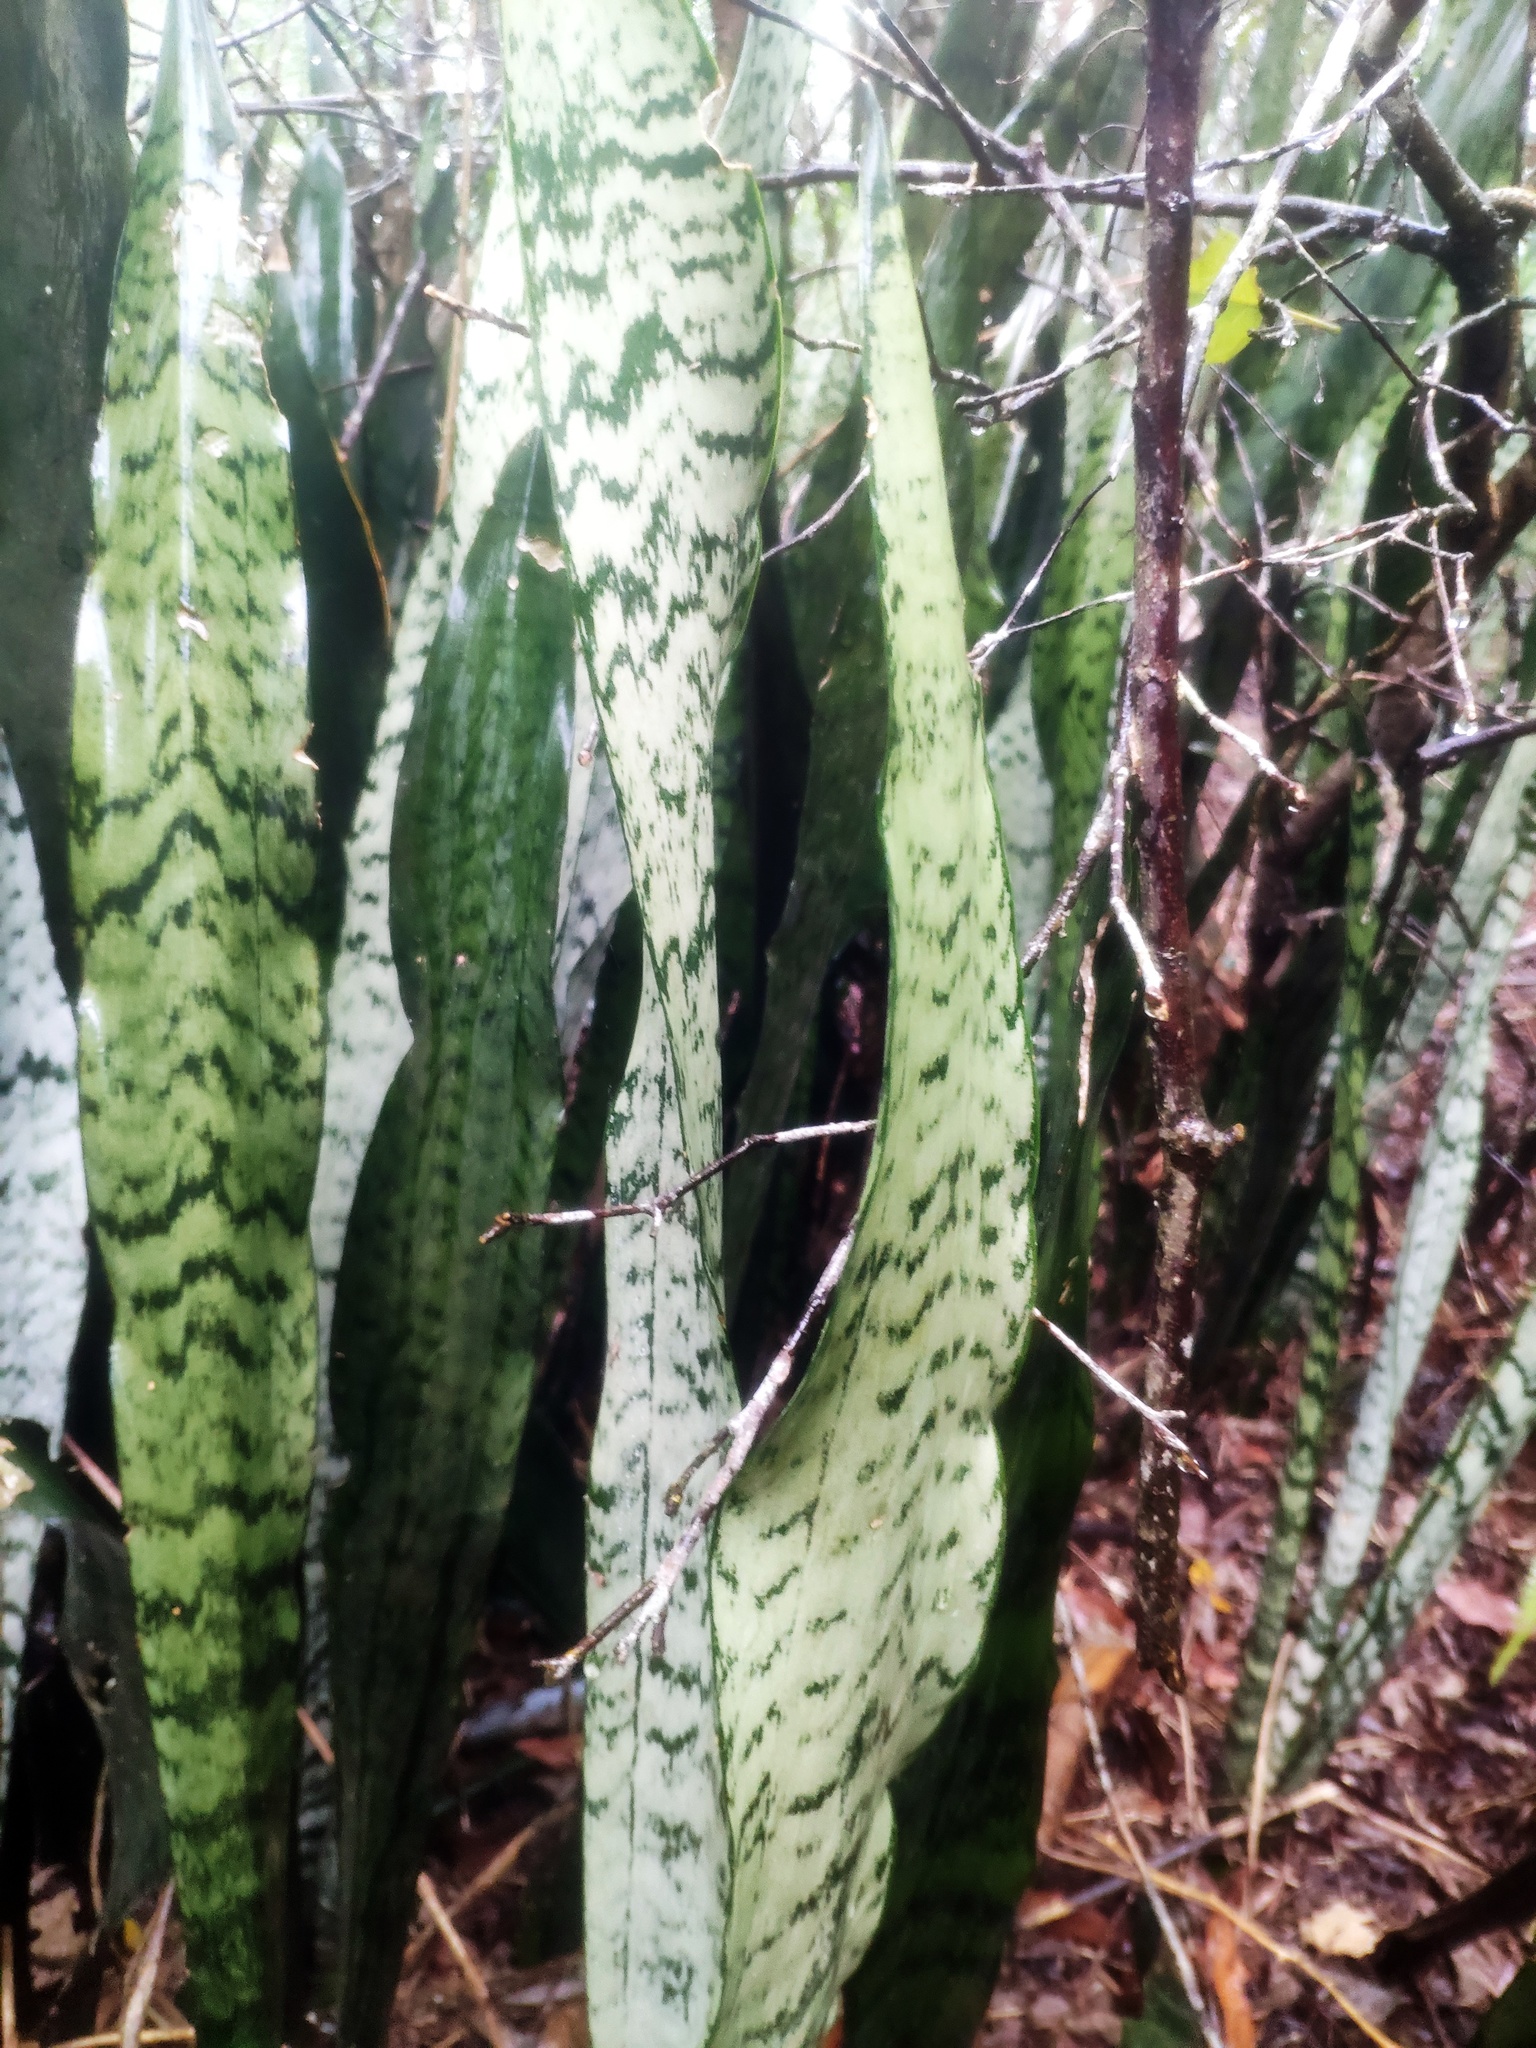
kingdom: Plantae
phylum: Tracheophyta
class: Liliopsida
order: Asparagales
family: Asparagaceae
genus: Dracaena
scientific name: Dracaena trifasciata
